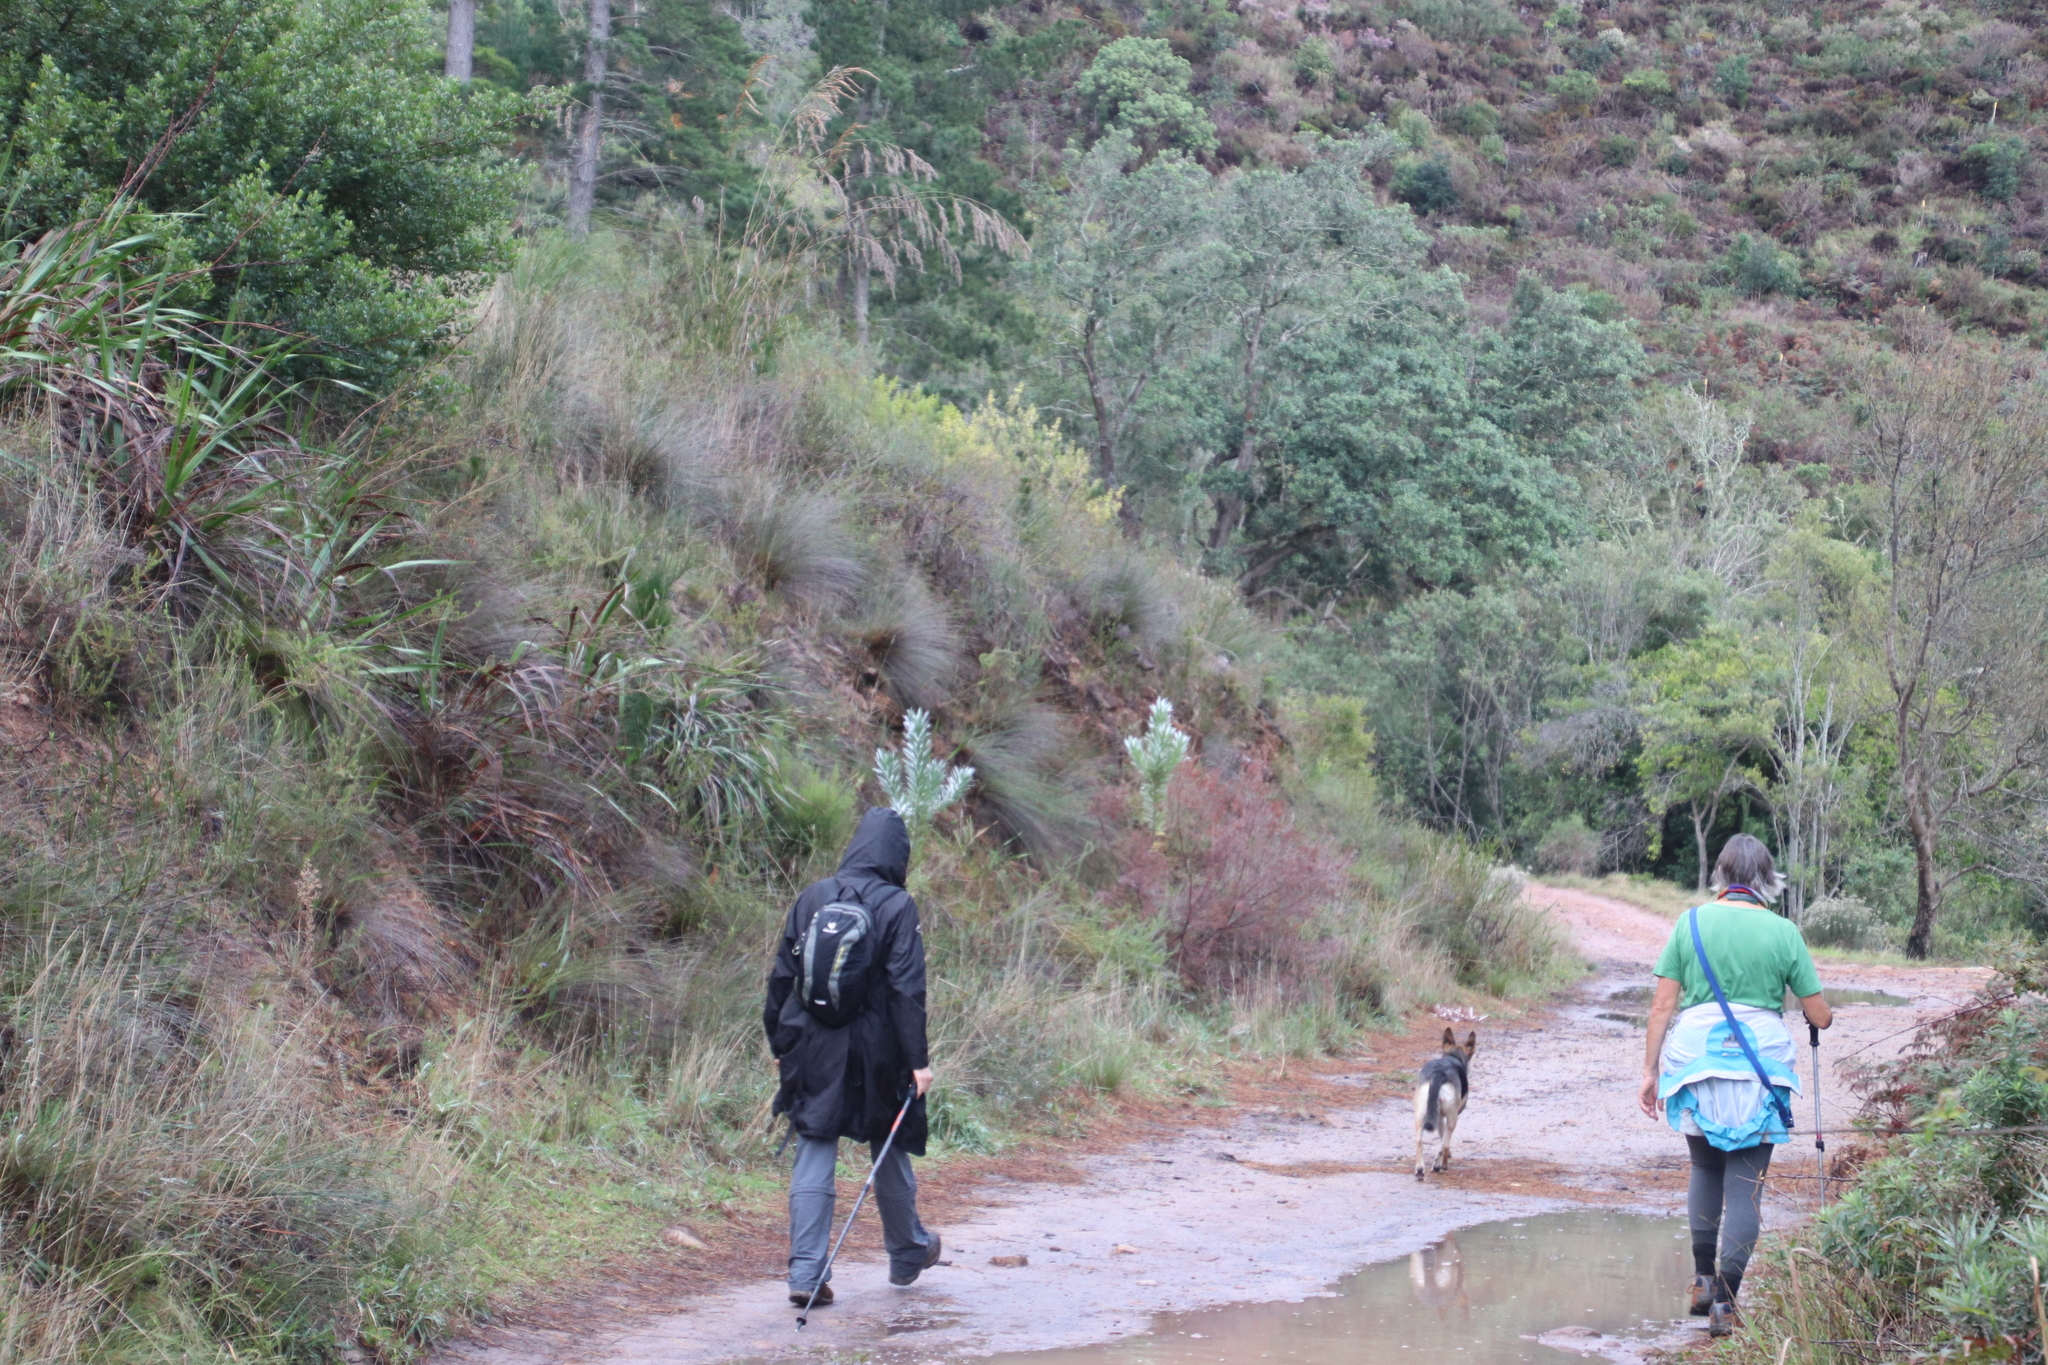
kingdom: Plantae
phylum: Tracheophyta
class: Magnoliopsida
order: Proteales
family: Proteaceae
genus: Leucadendron
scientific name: Leucadendron argenteum
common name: Cape silver tree
